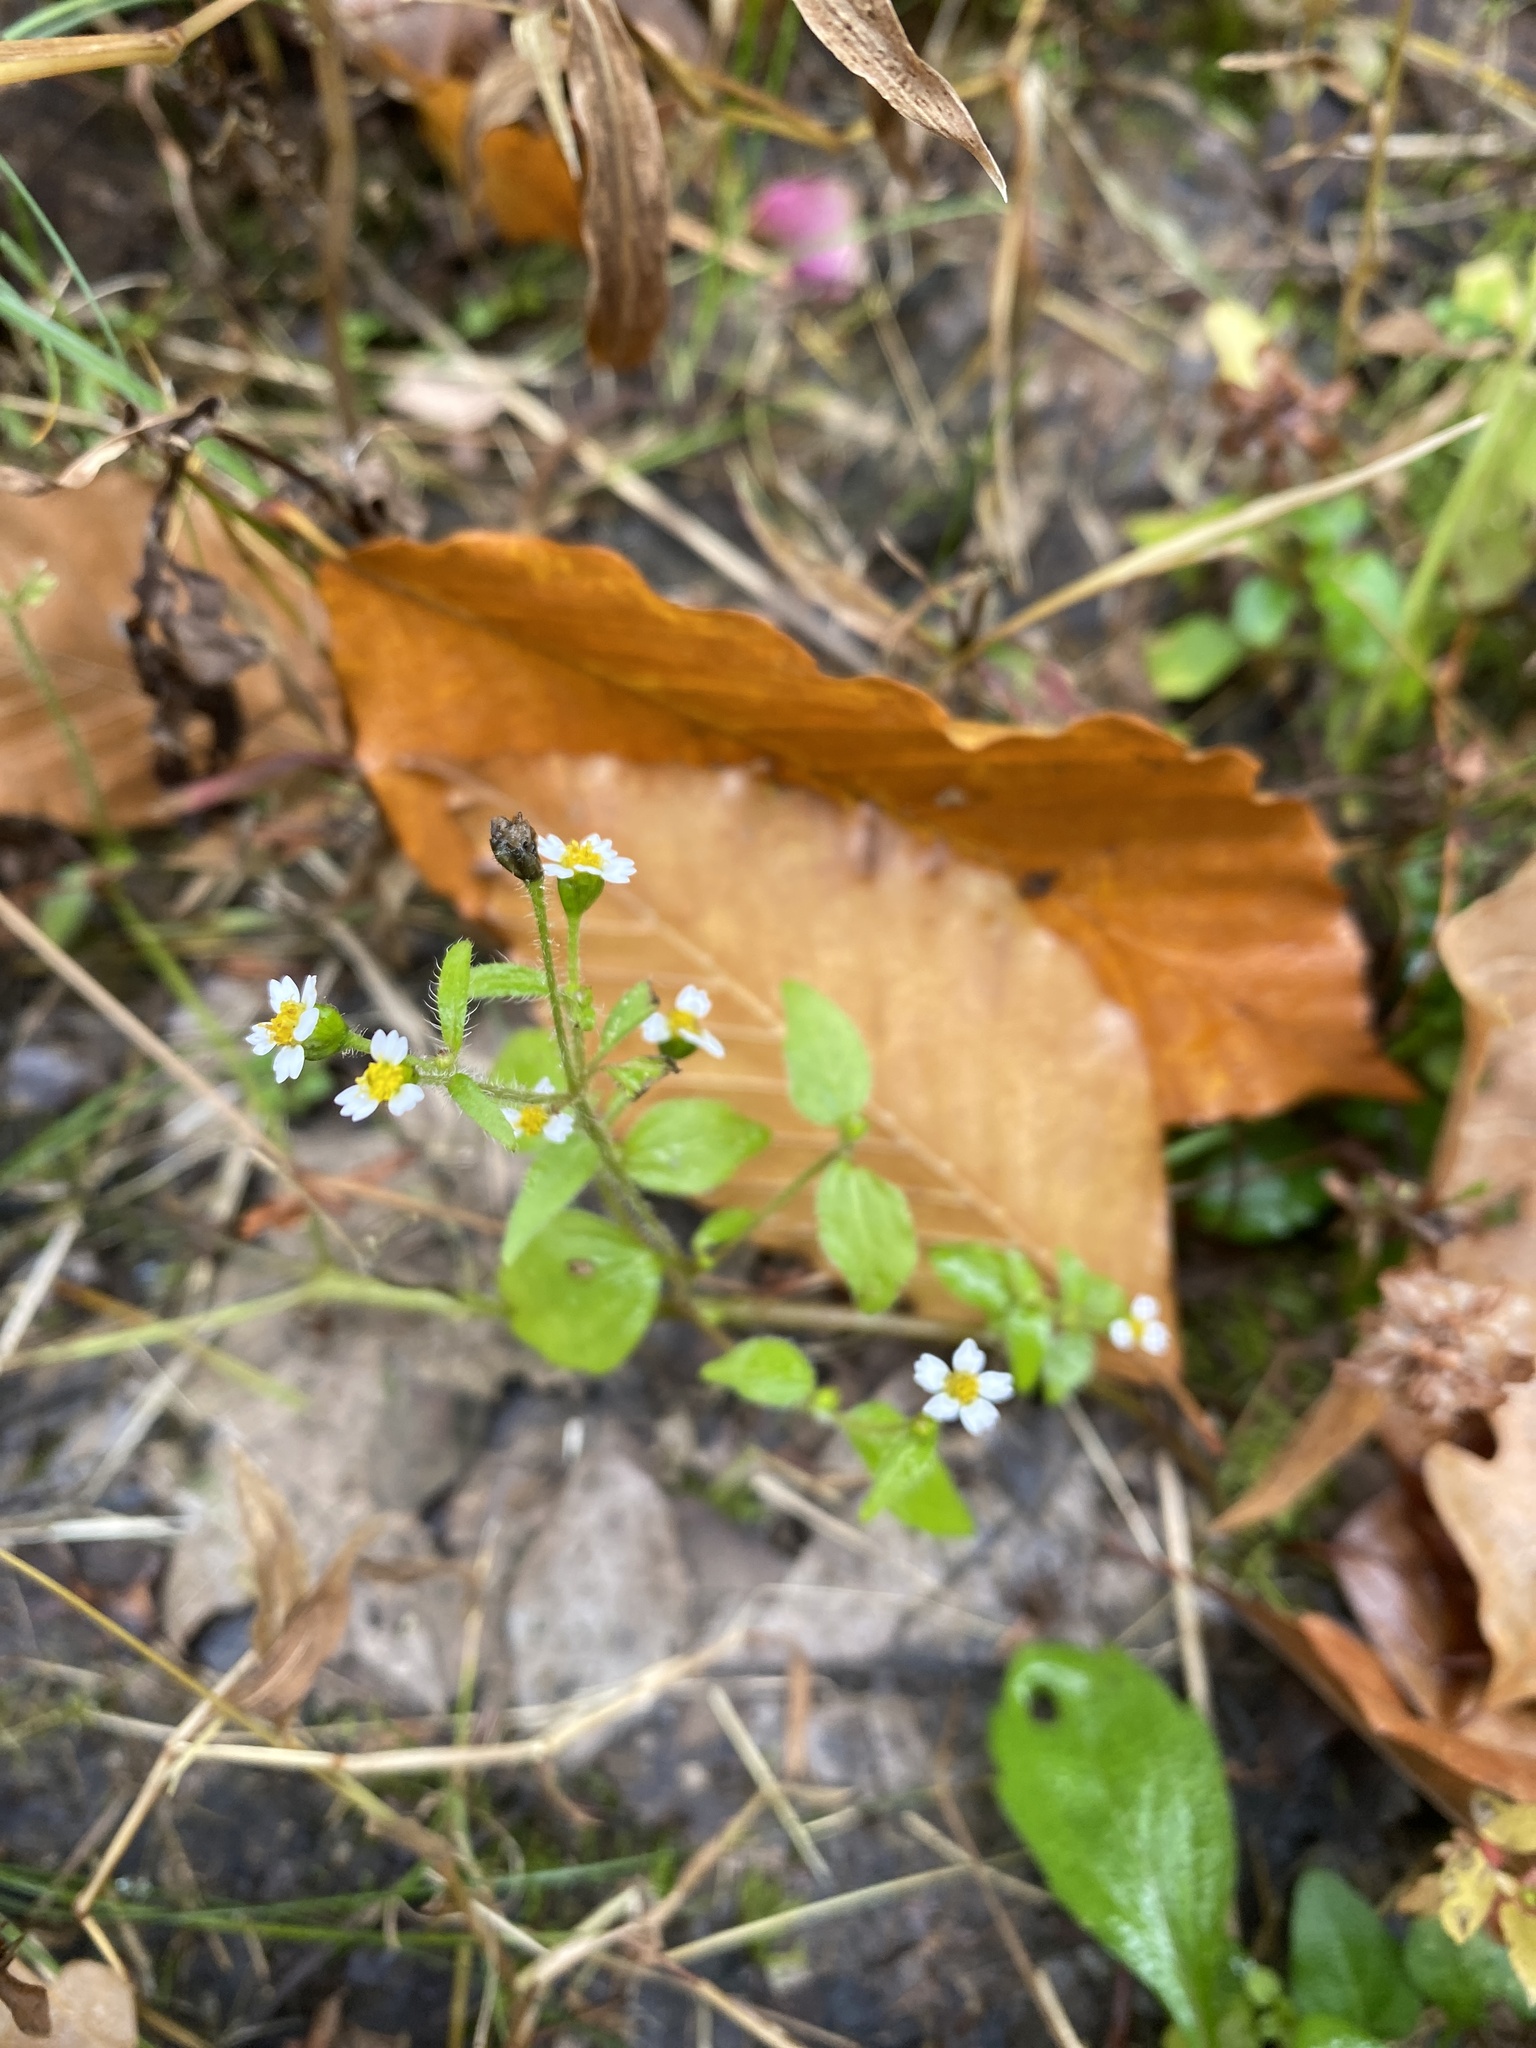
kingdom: Plantae
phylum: Tracheophyta
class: Magnoliopsida
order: Asterales
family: Asteraceae
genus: Galinsoga
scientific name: Galinsoga quadriradiata
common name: Shaggy soldier
